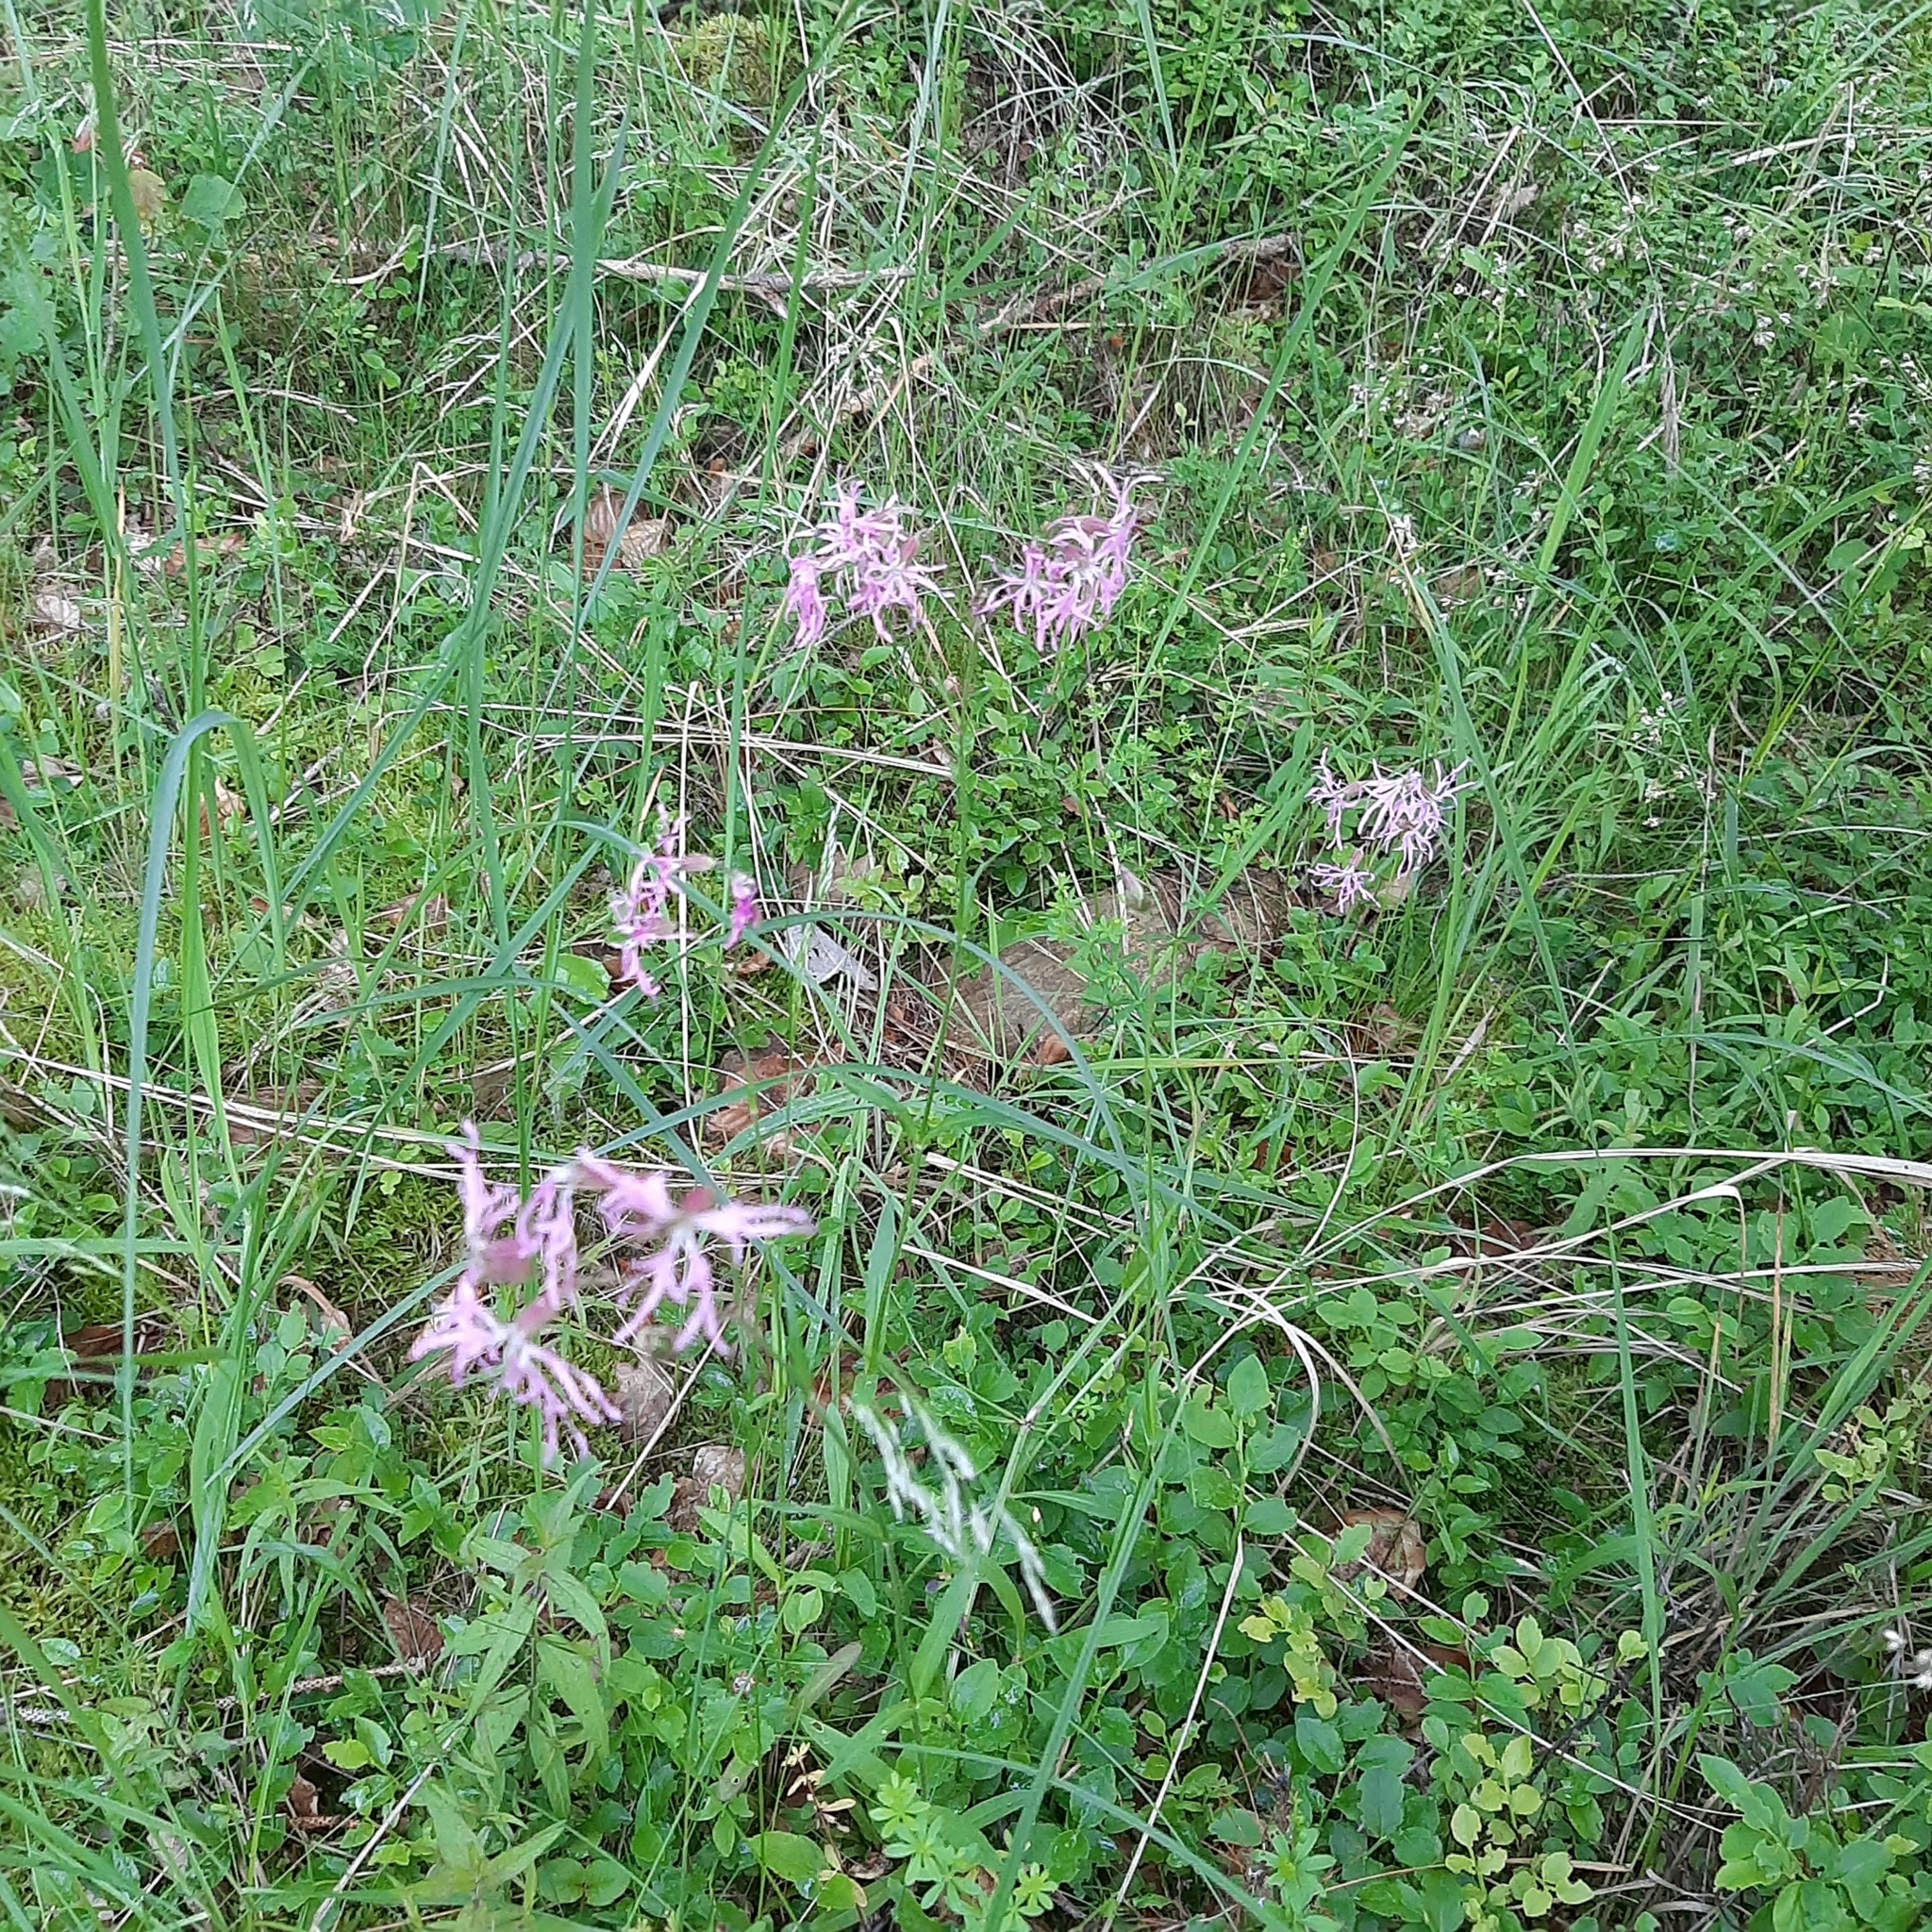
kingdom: Plantae
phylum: Tracheophyta
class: Magnoliopsida
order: Caryophyllales
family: Caryophyllaceae
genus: Silene
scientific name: Silene flos-cuculi
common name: Ragged-robin
